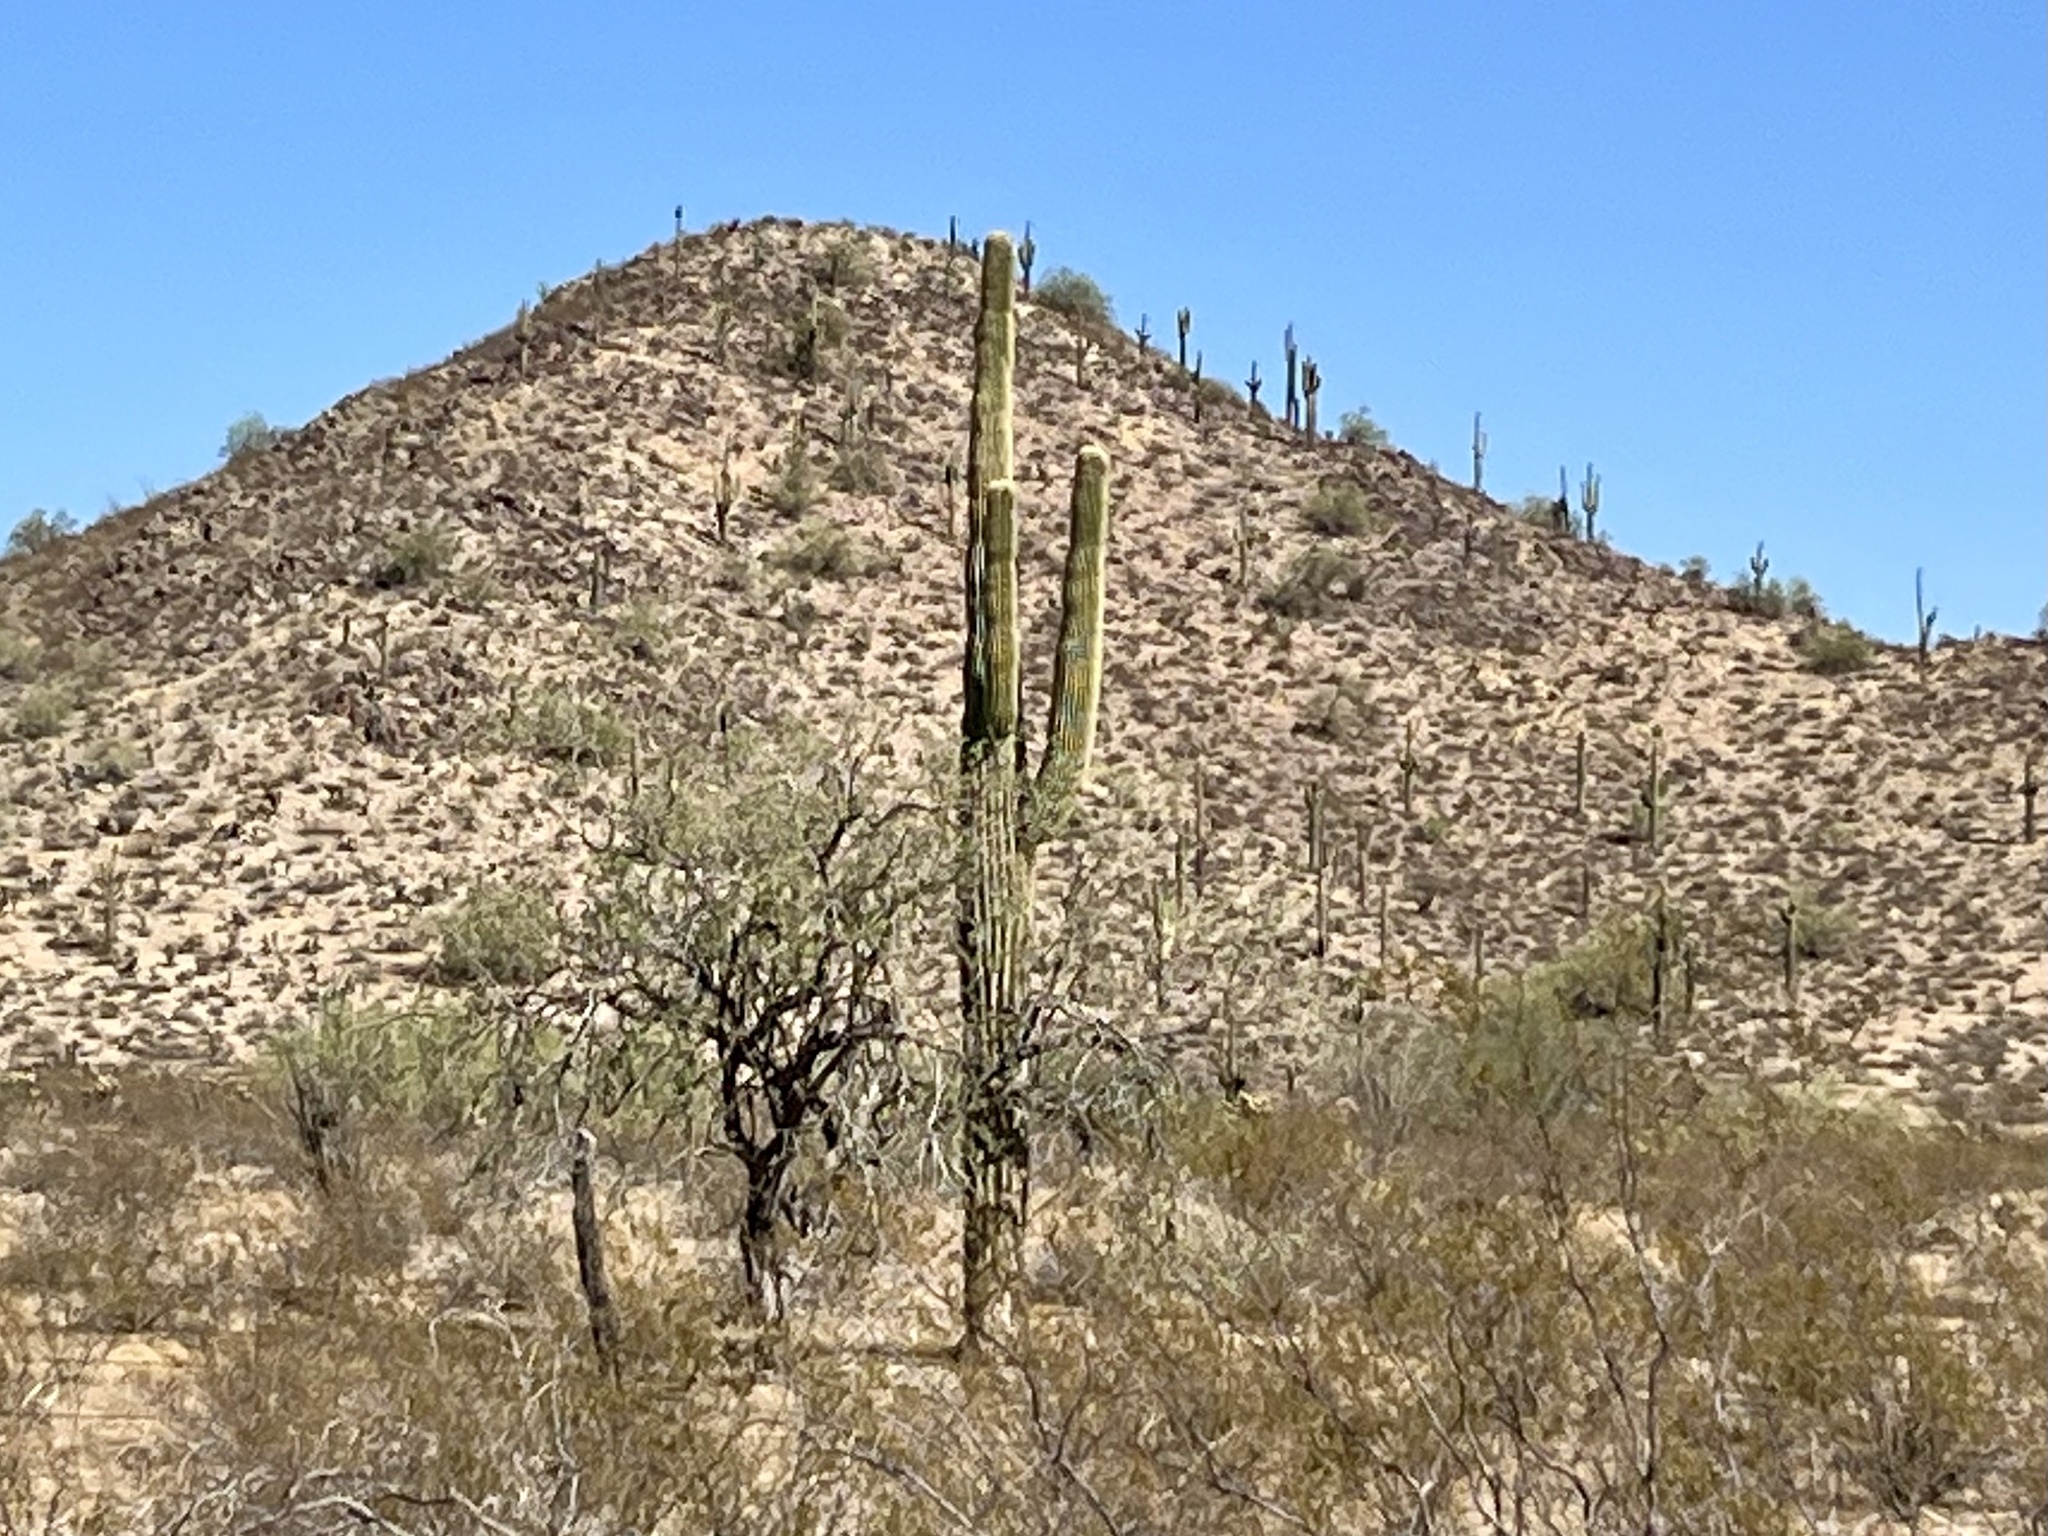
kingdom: Plantae
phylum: Tracheophyta
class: Magnoliopsida
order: Caryophyllales
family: Cactaceae
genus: Carnegiea
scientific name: Carnegiea gigantea
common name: Saguaro
